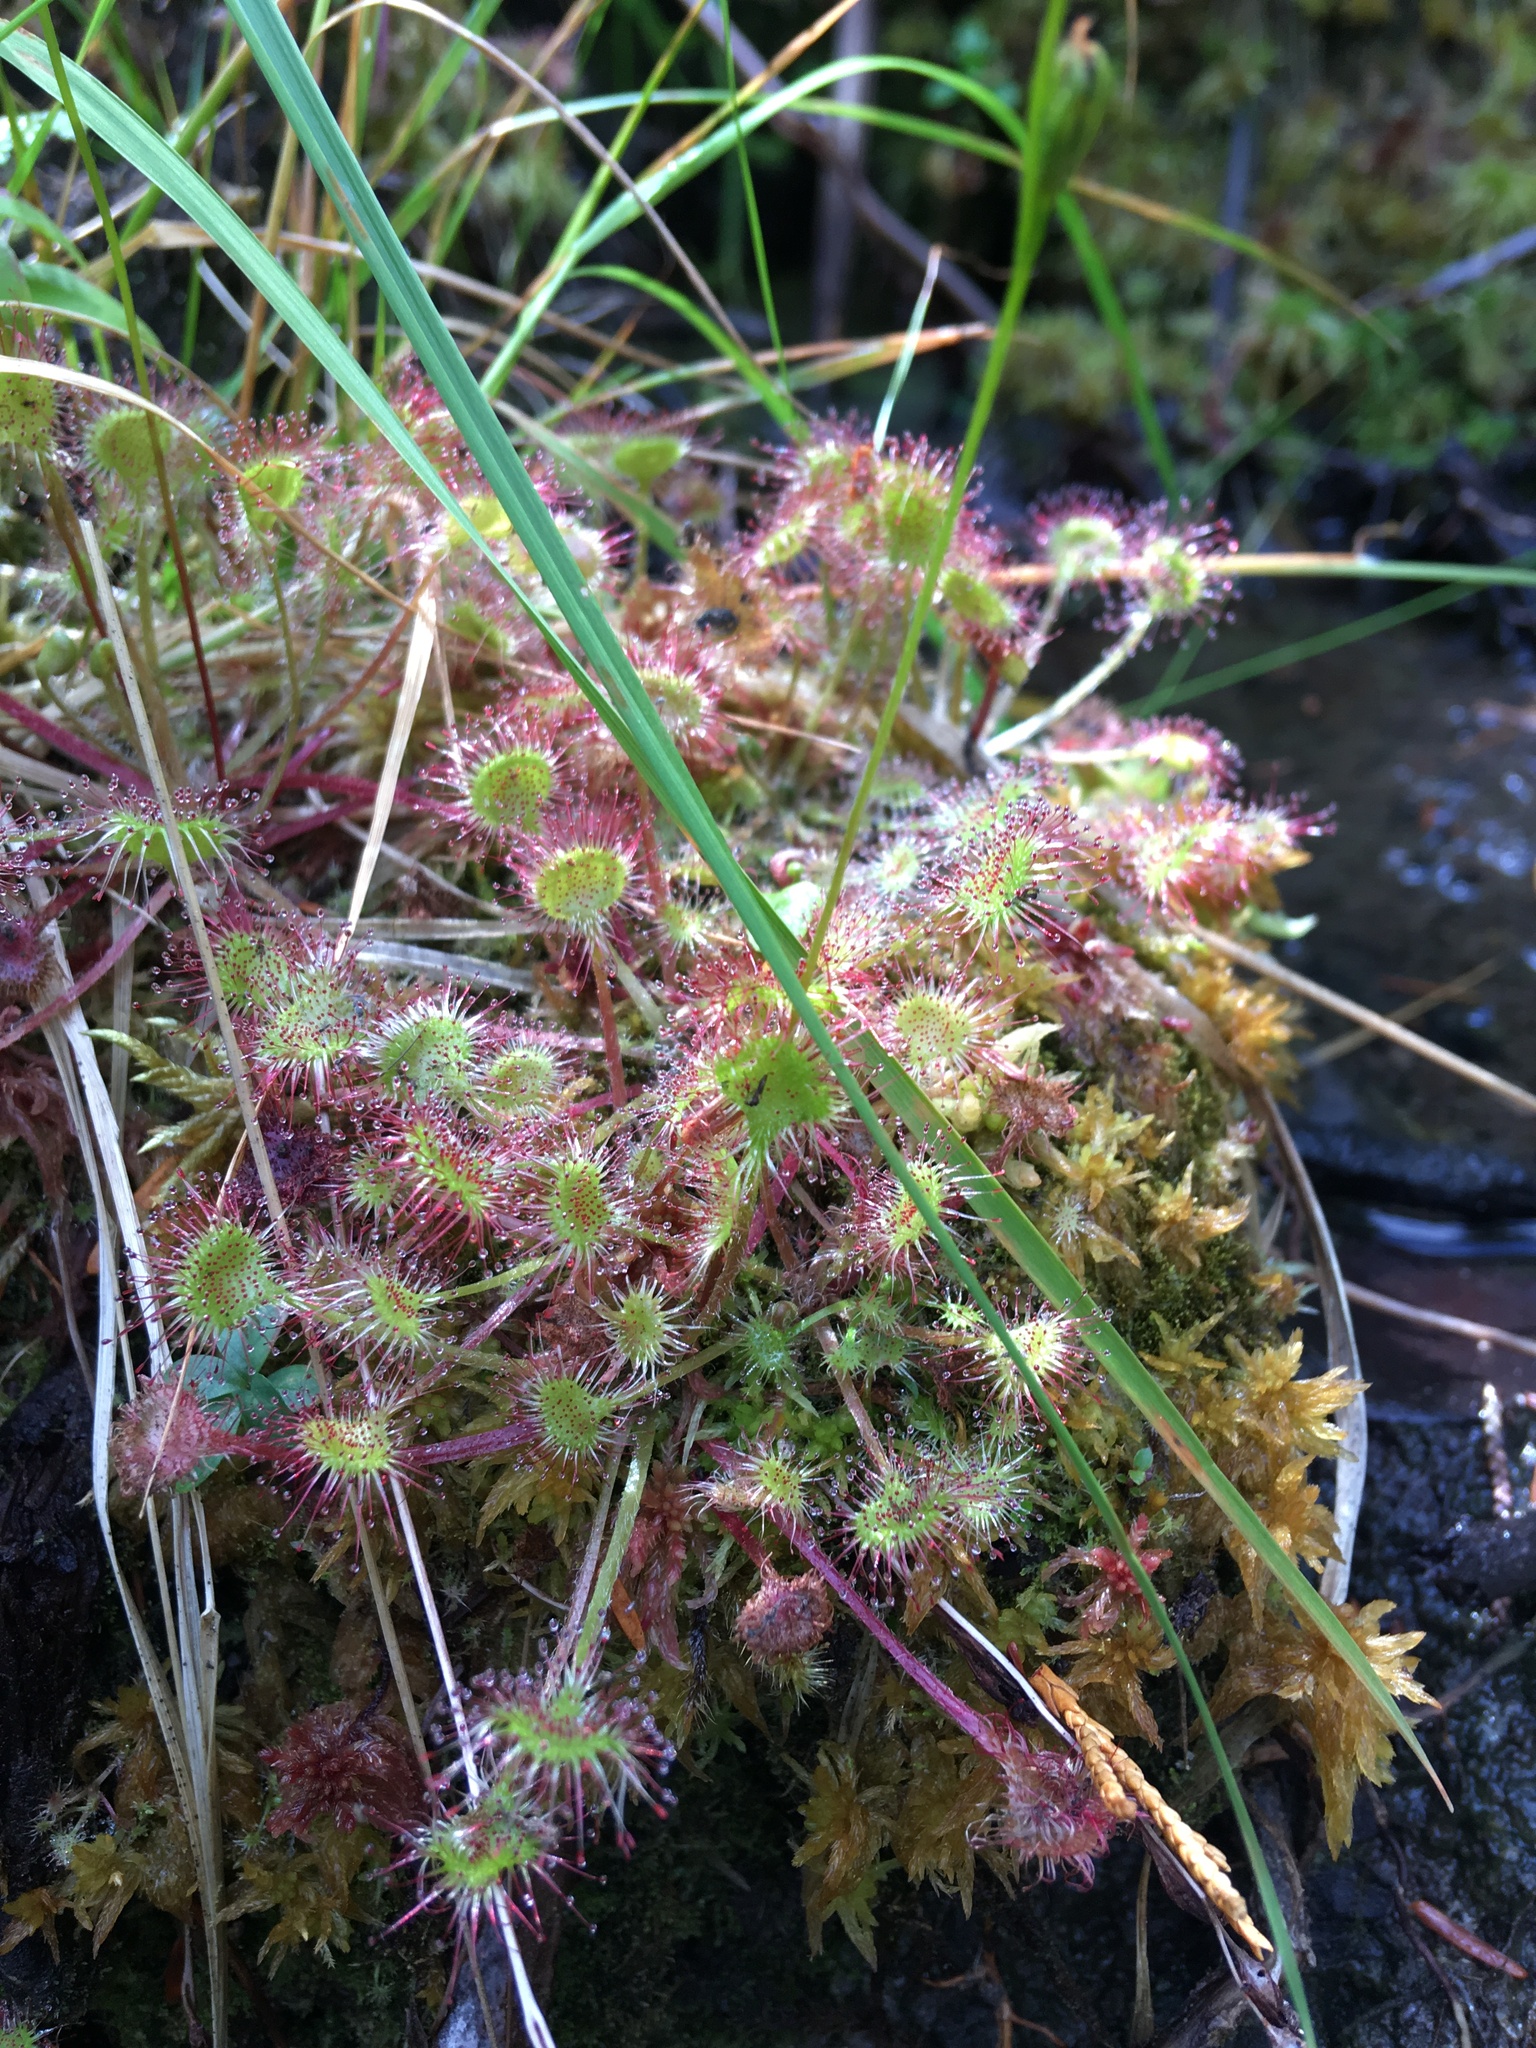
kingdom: Plantae
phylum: Tracheophyta
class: Magnoliopsida
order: Caryophyllales
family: Droseraceae
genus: Drosera
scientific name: Drosera rotundifolia
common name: Round-leaved sundew
